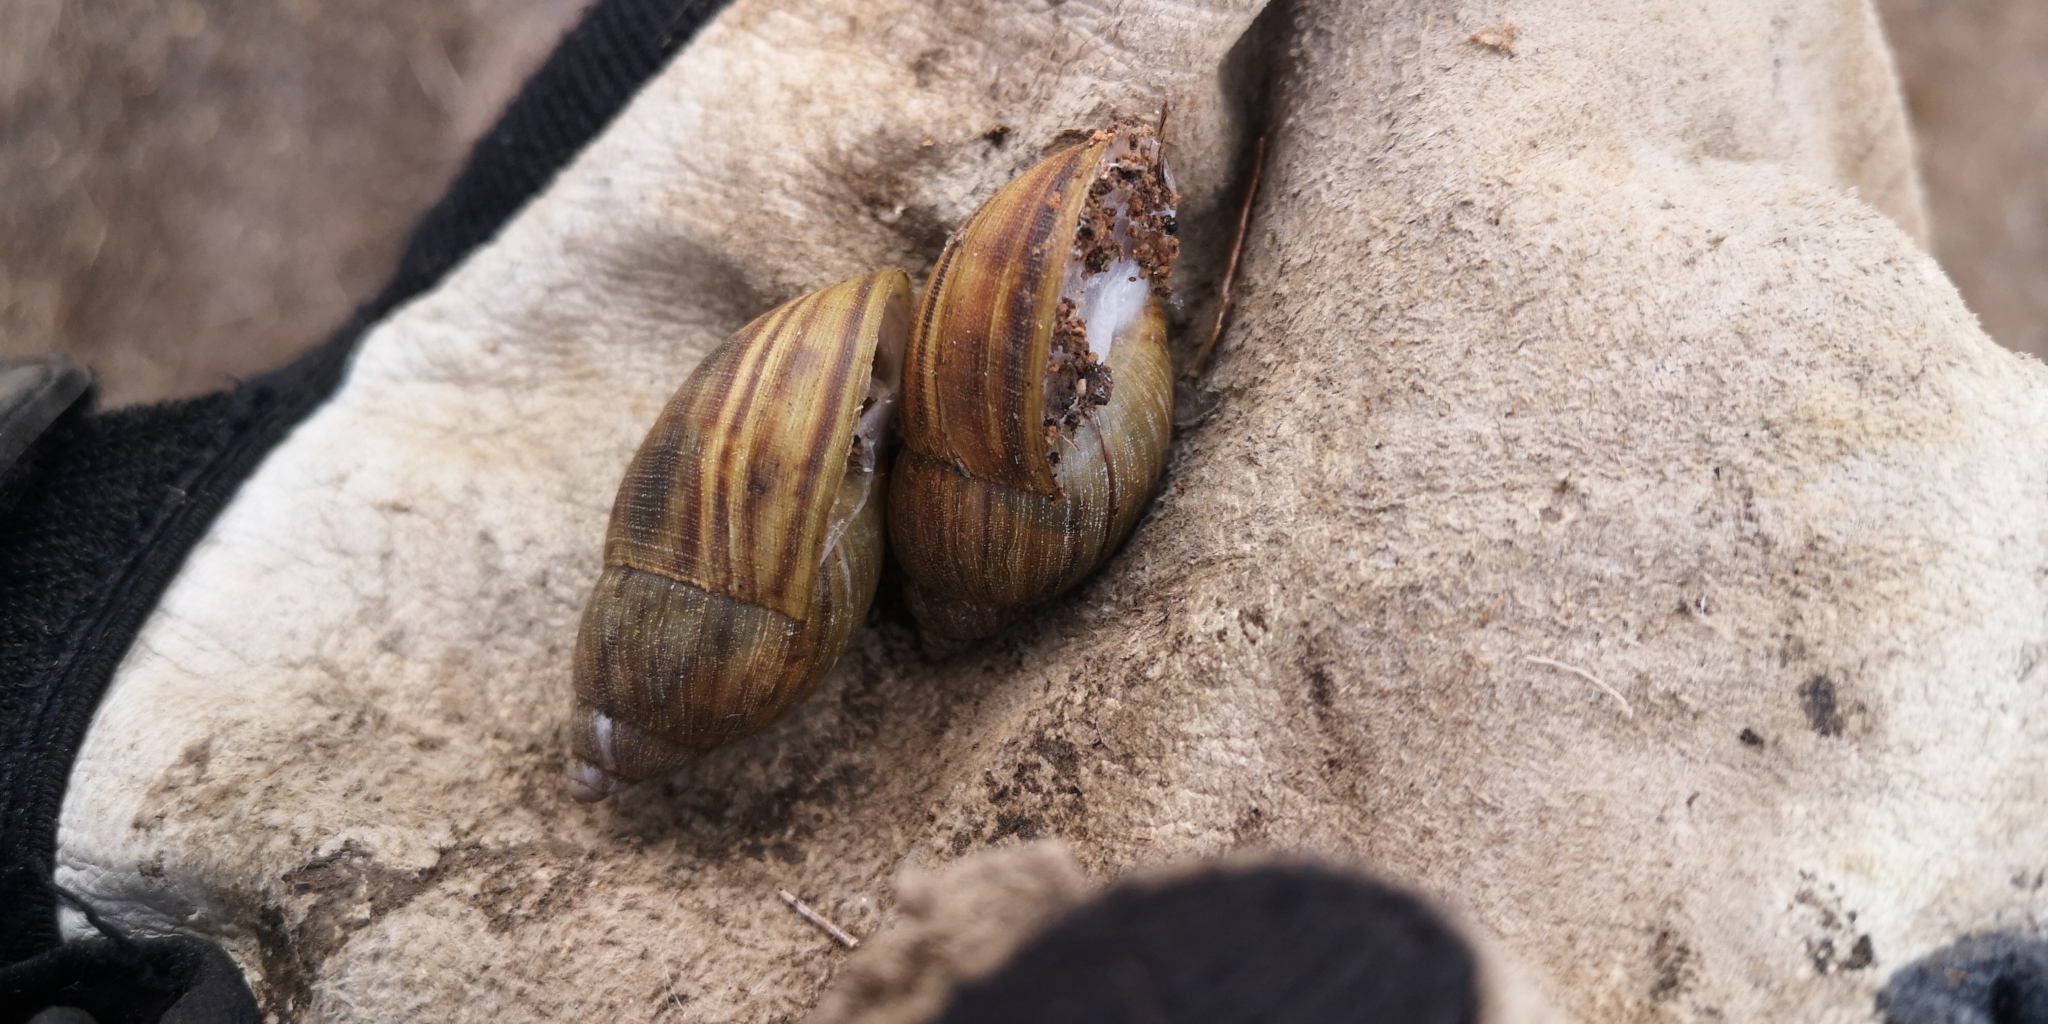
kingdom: Animalia
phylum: Mollusca
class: Gastropoda
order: Stylommatophora
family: Bothriembryontidae
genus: Plectostylus
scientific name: Plectostylus chilensis
